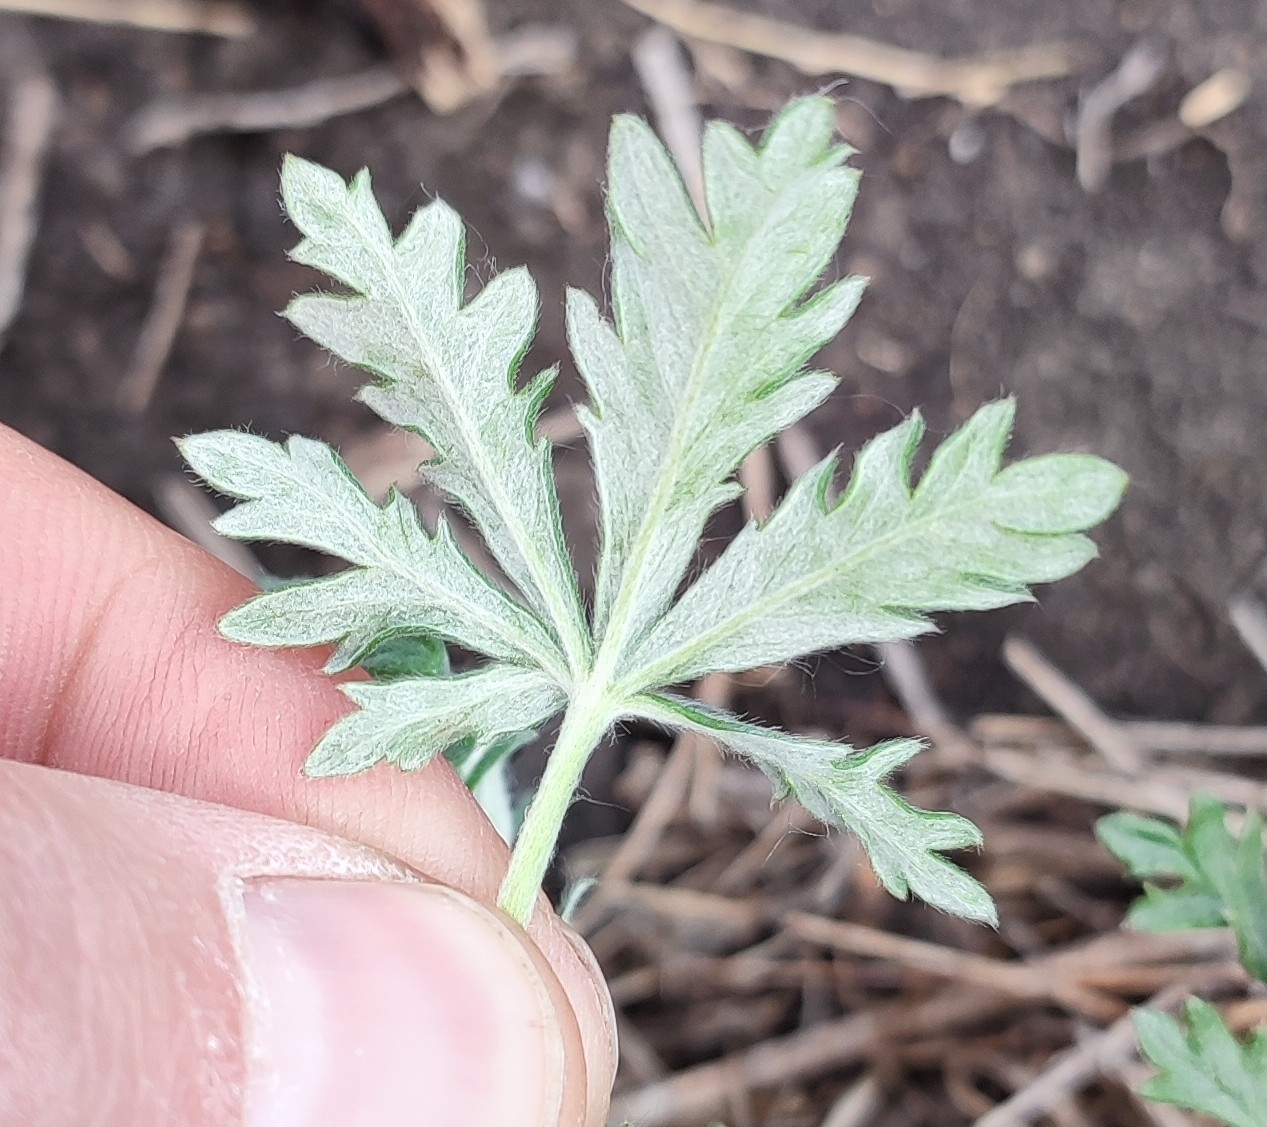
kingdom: Plantae
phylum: Tracheophyta
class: Magnoliopsida
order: Rosales
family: Rosaceae
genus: Potentilla
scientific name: Potentilla argentea
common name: Hoary cinquefoil
